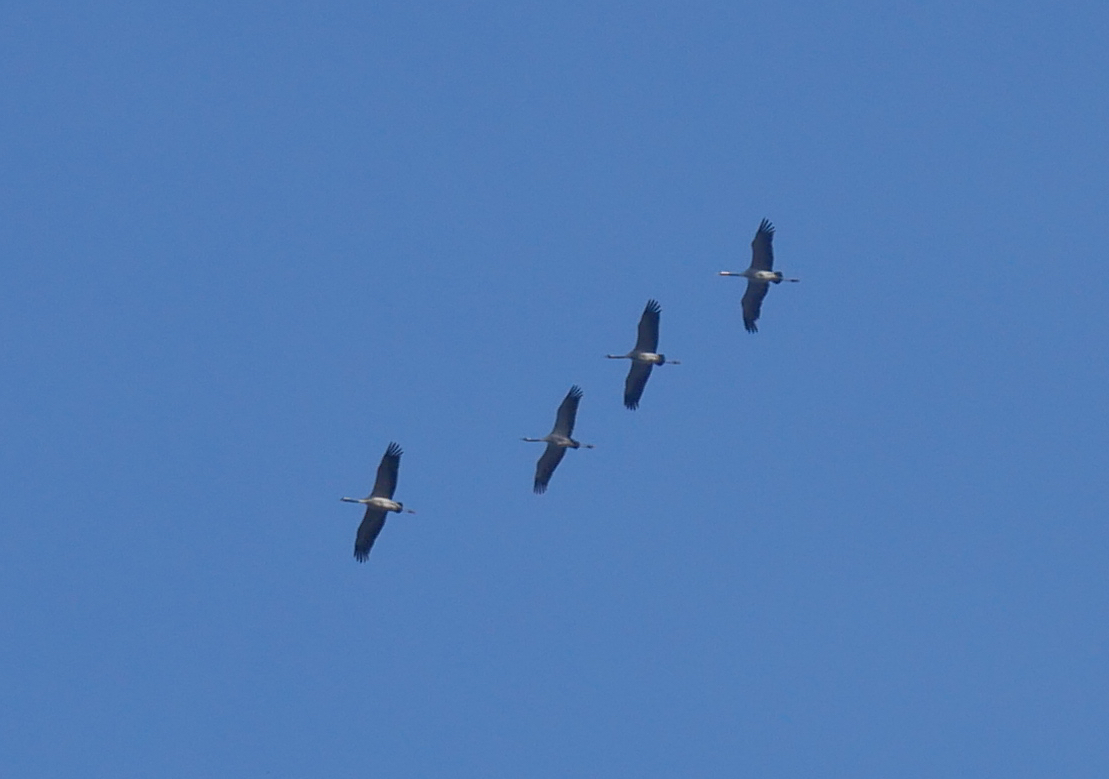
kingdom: Animalia
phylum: Chordata
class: Aves
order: Gruiformes
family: Gruidae
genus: Grus
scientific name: Grus grus
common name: Common crane
